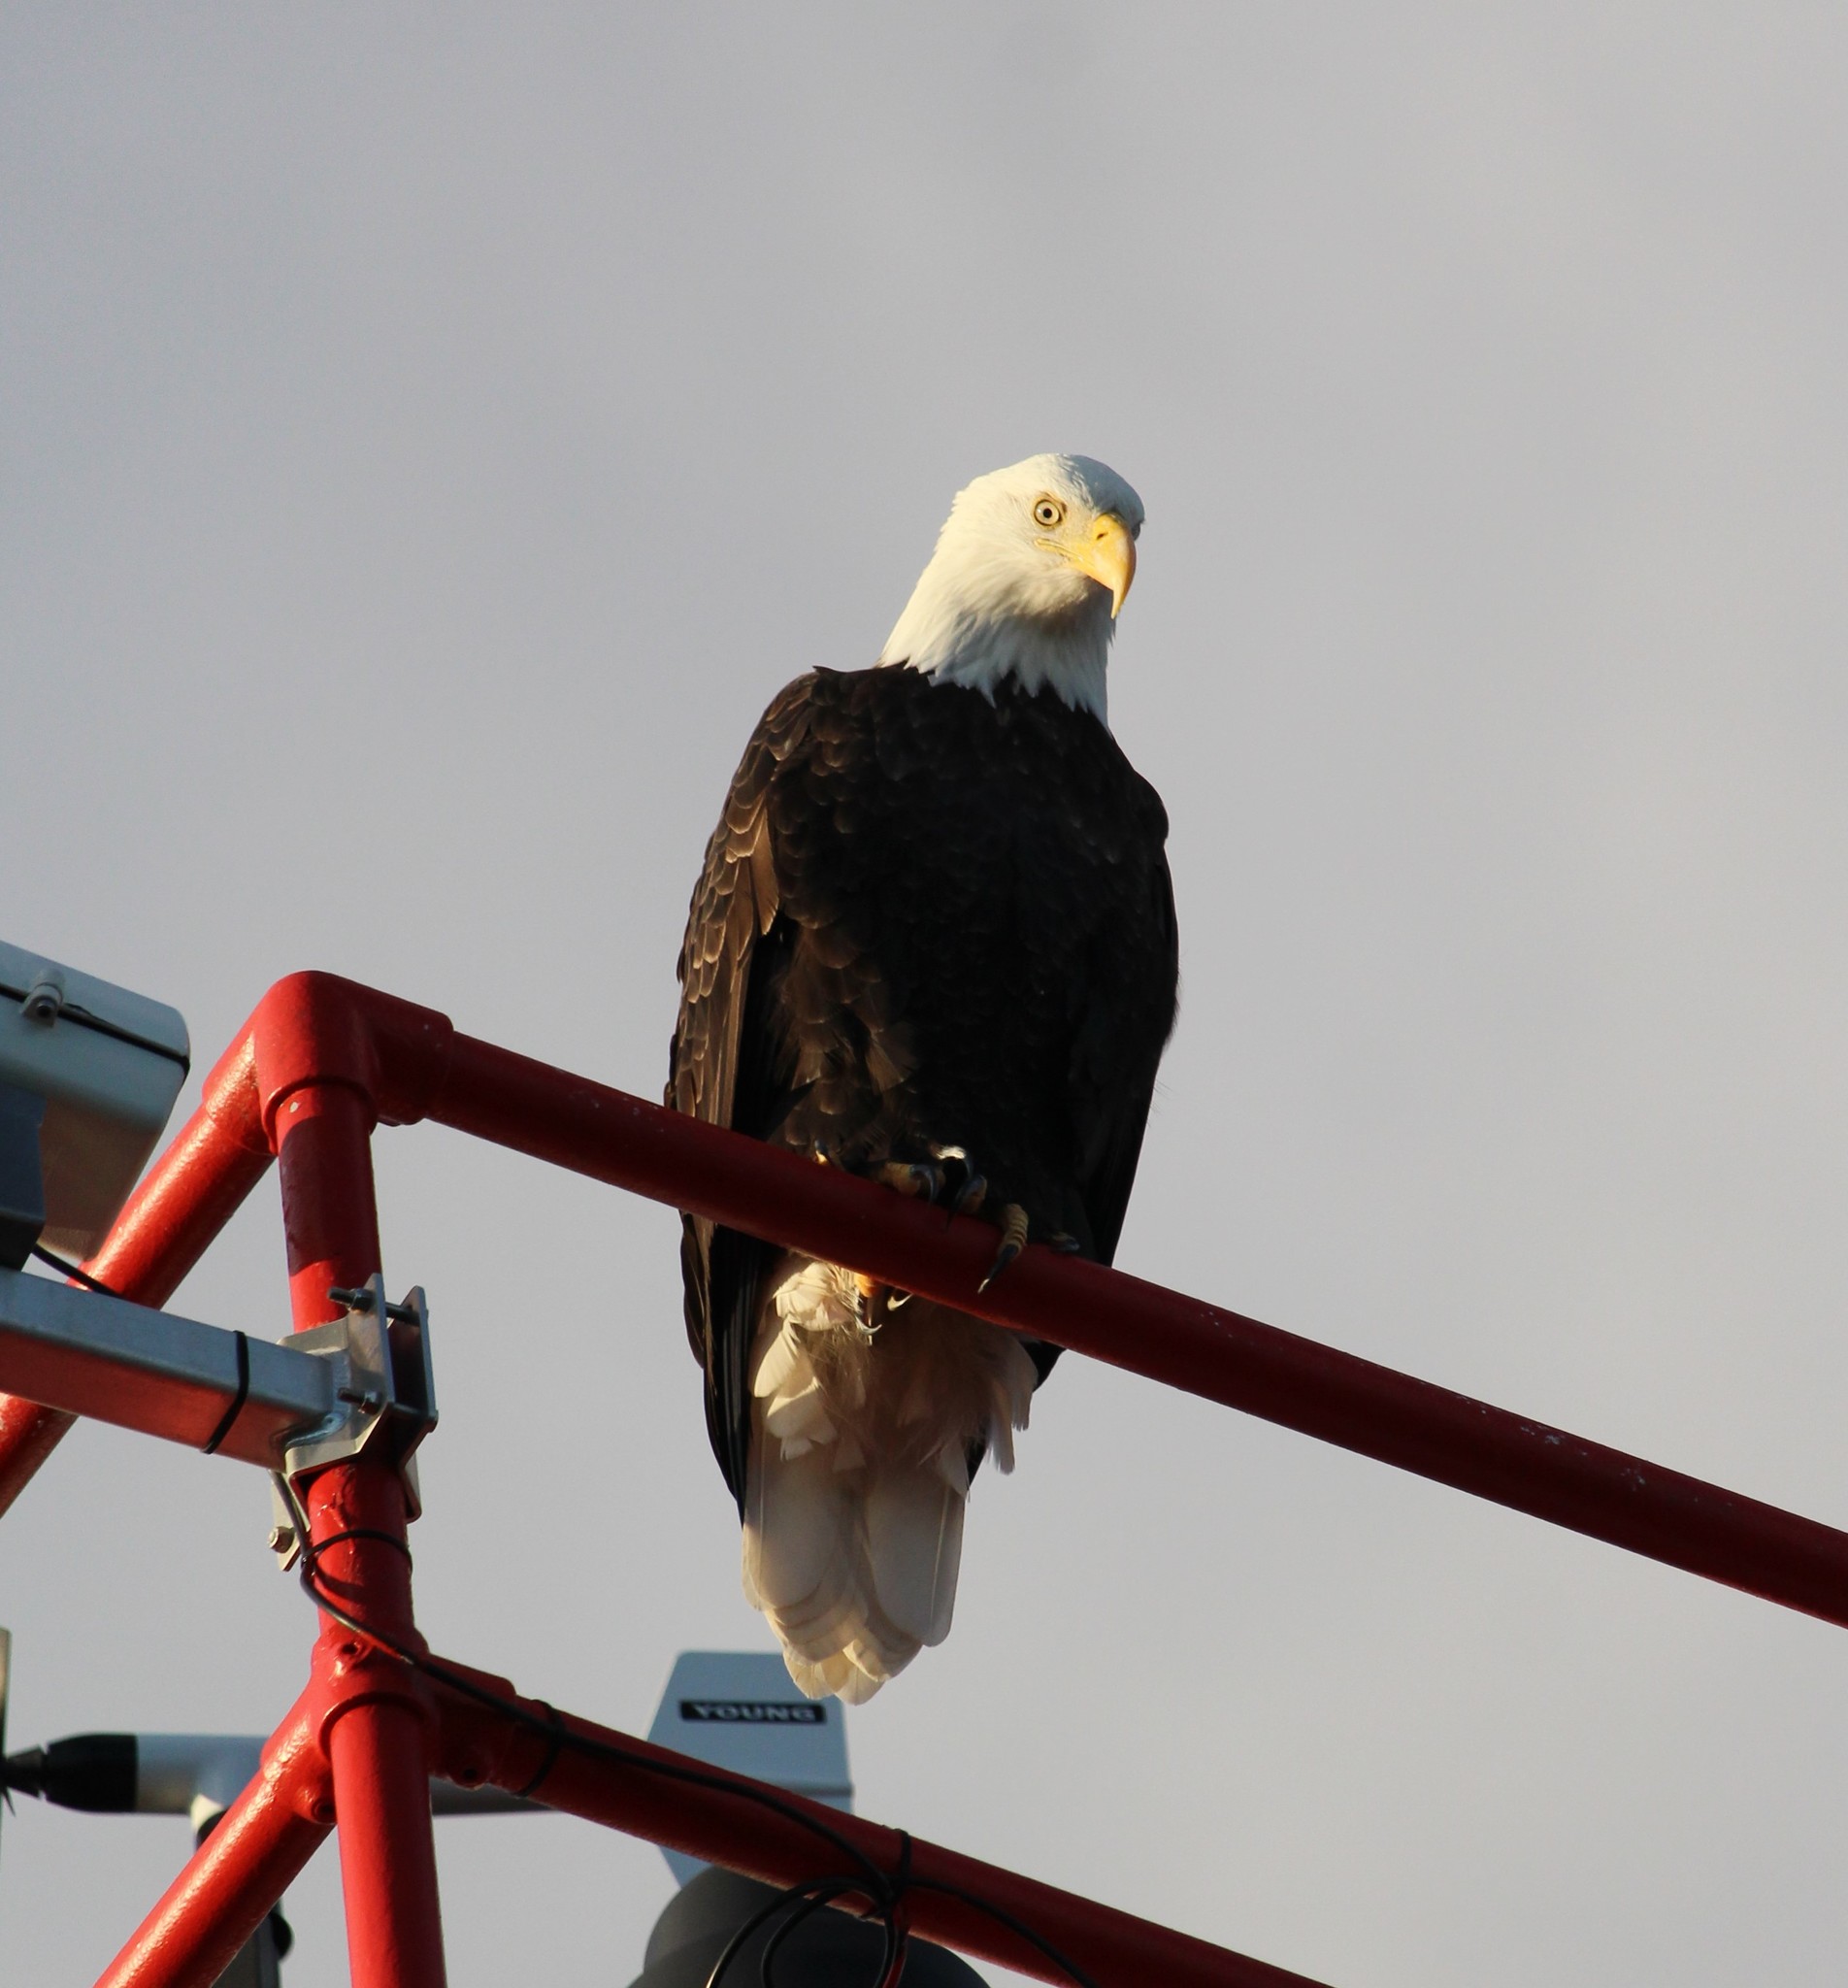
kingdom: Animalia
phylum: Chordata
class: Aves
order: Accipitriformes
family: Accipitridae
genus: Haliaeetus
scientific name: Haliaeetus leucocephalus
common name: Bald eagle
